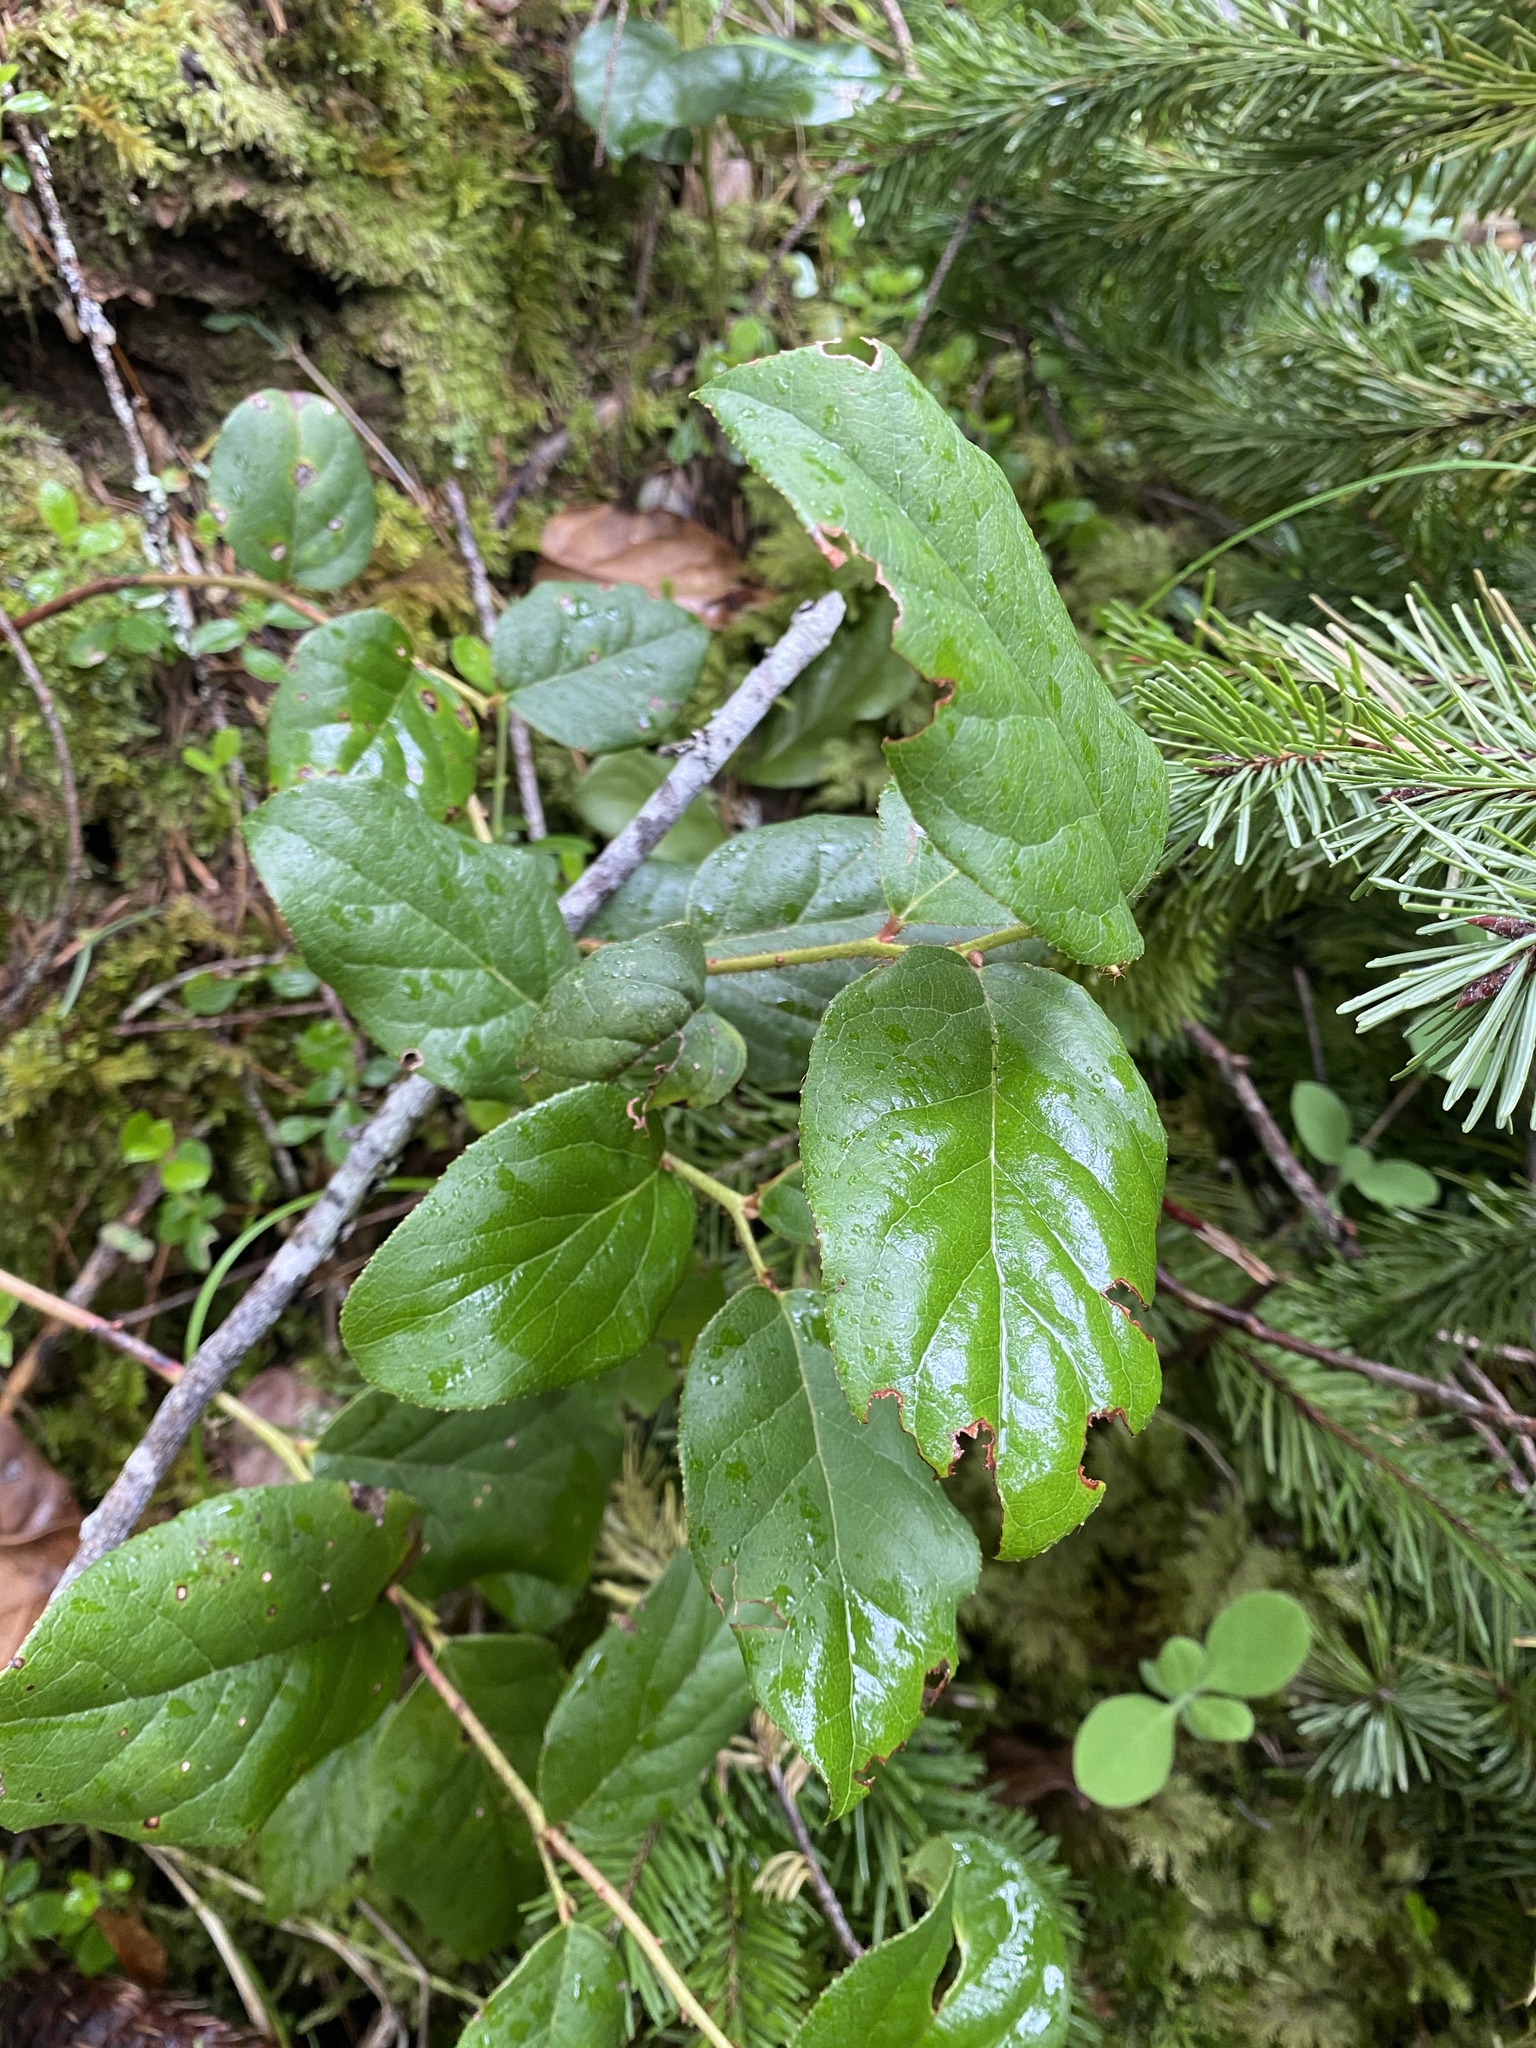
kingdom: Plantae
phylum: Tracheophyta
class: Magnoliopsida
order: Ericales
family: Ericaceae
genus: Gaultheria
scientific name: Gaultheria shallon
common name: Shallon
